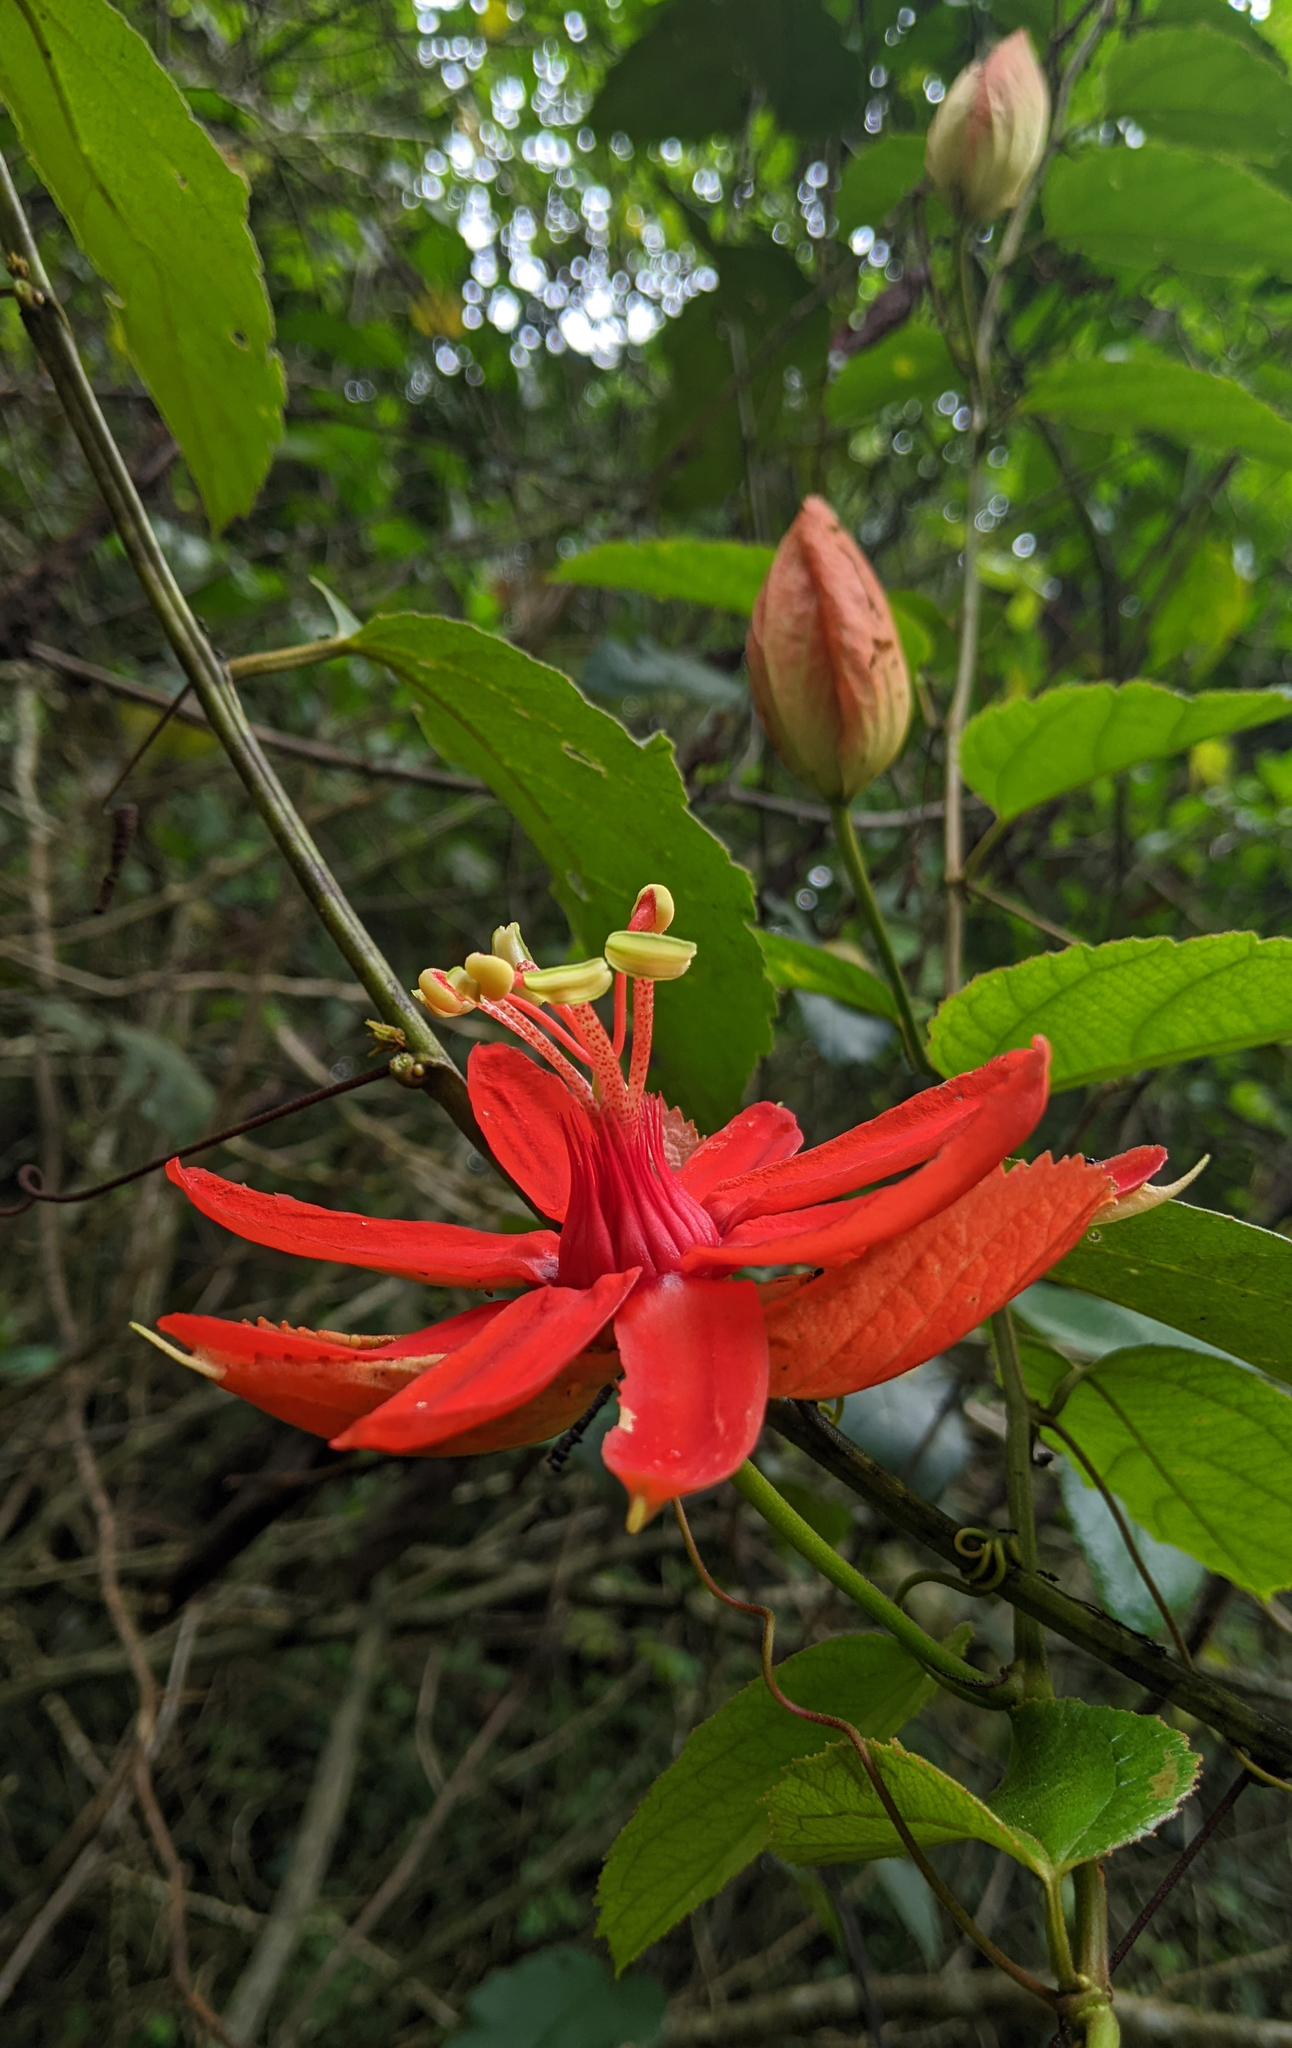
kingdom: Plantae
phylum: Tracheophyta
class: Magnoliopsida
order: Malpighiales
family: Passifloraceae
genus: Passiflora
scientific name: Passiflora tecta
